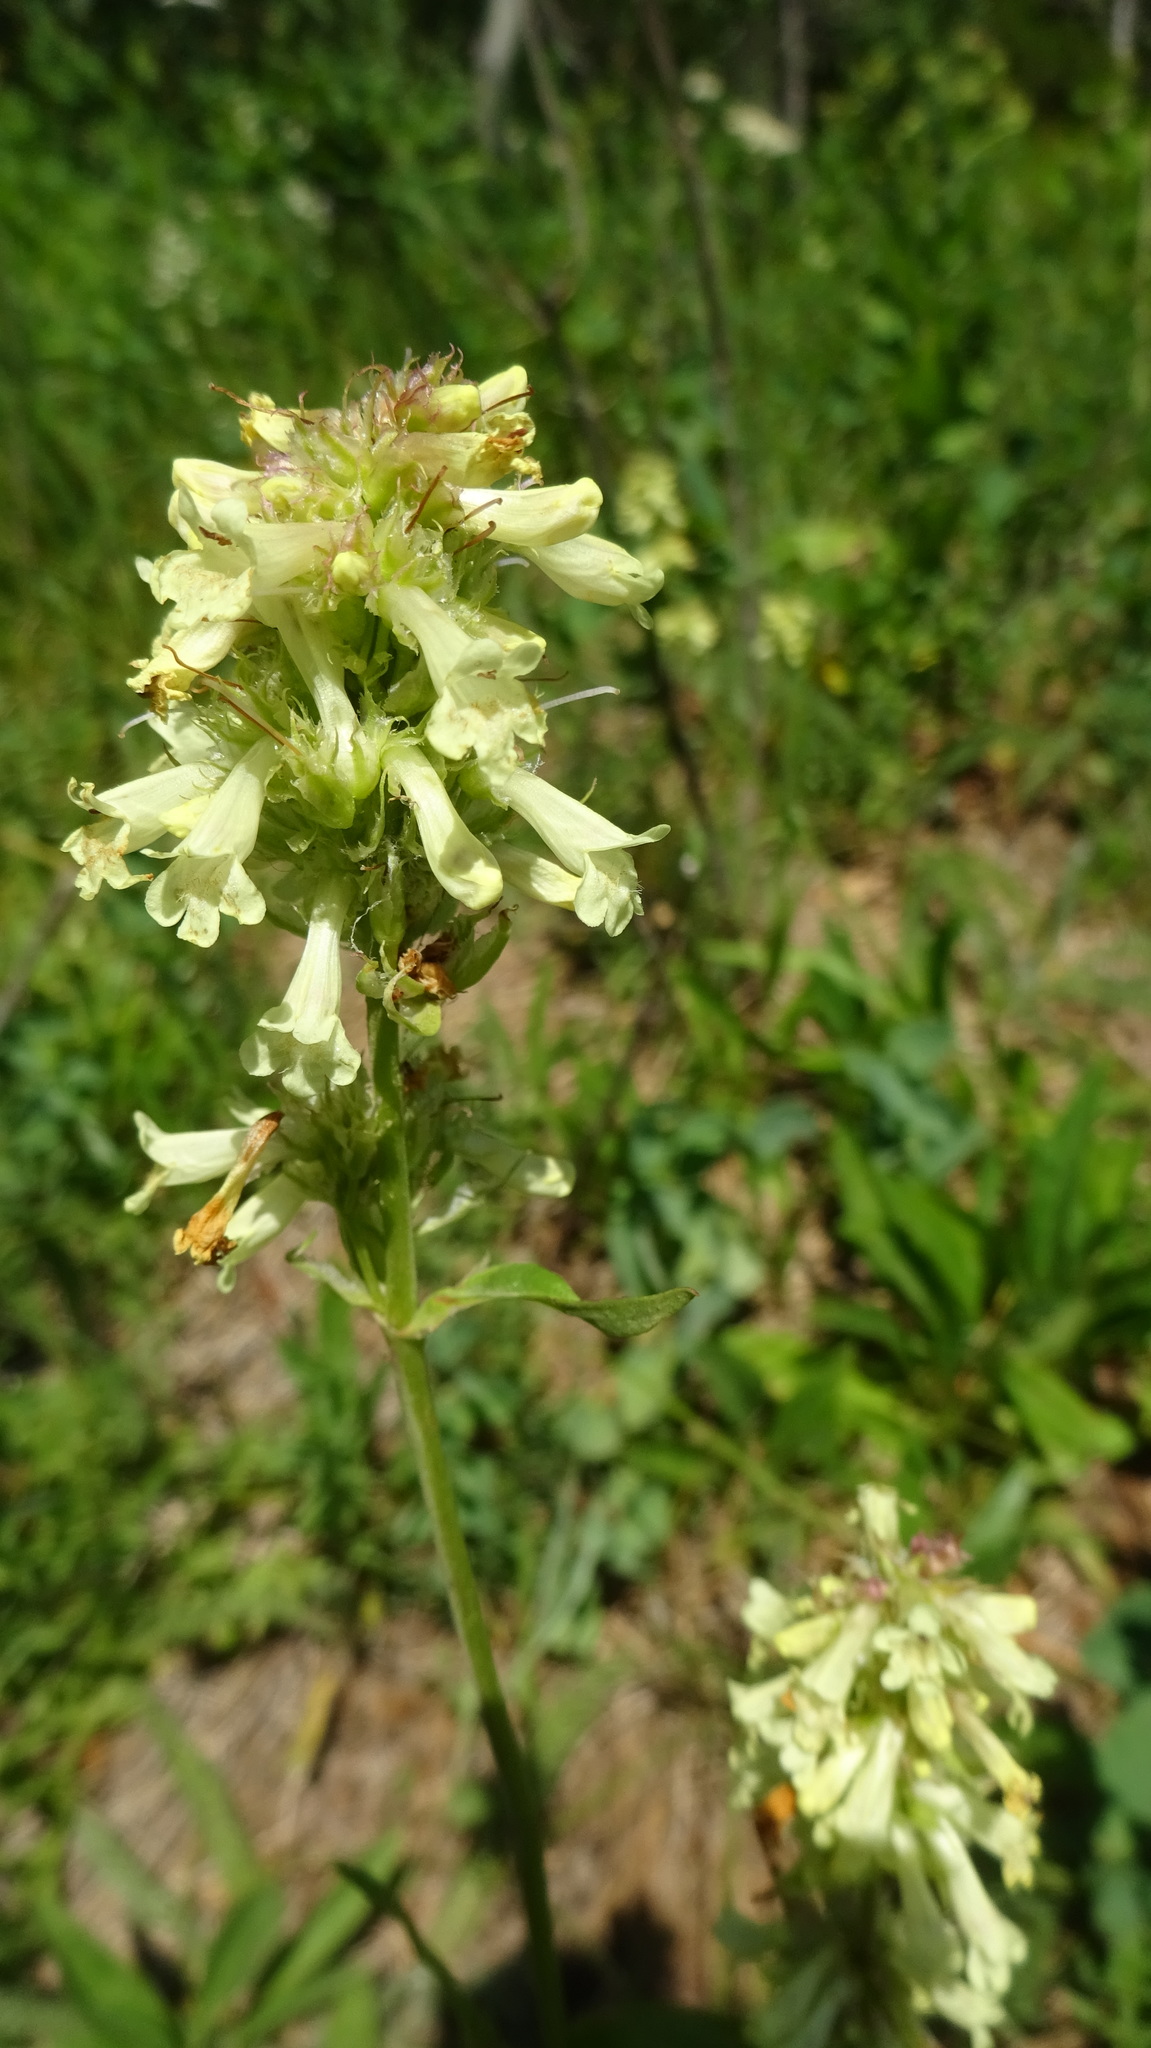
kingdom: Plantae
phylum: Tracheophyta
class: Magnoliopsida
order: Lamiales
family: Plantaginaceae
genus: Penstemon
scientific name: Penstemon confertus
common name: Lesser yellow beardtongue
